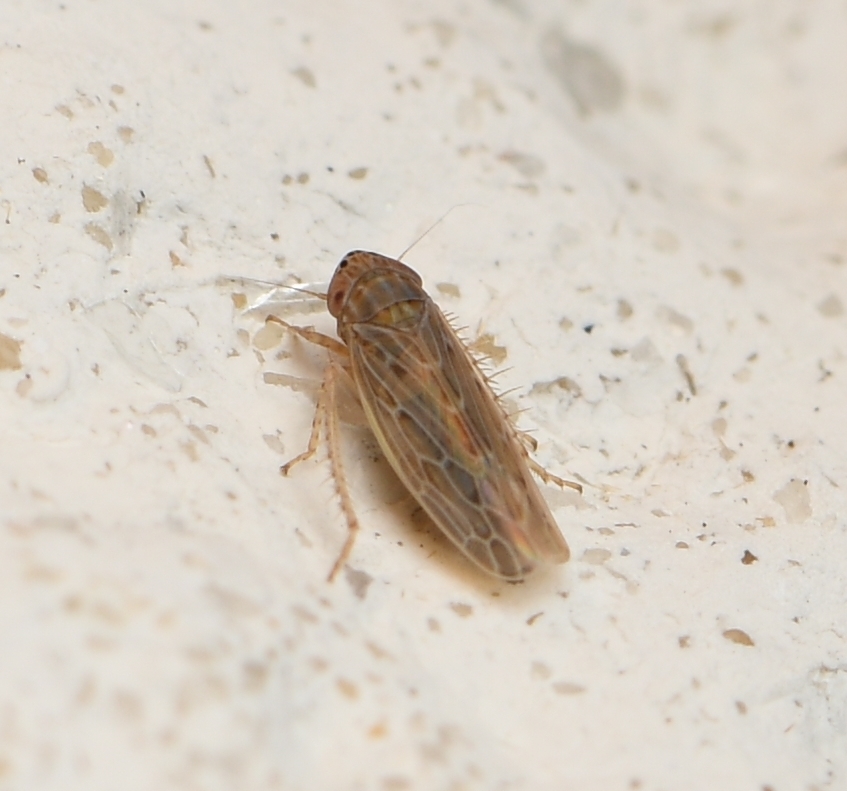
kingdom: Animalia
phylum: Arthropoda
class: Insecta
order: Hemiptera
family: Cicadellidae
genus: Graminella
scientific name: Graminella sonora
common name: Lesser lawn leafhopper
